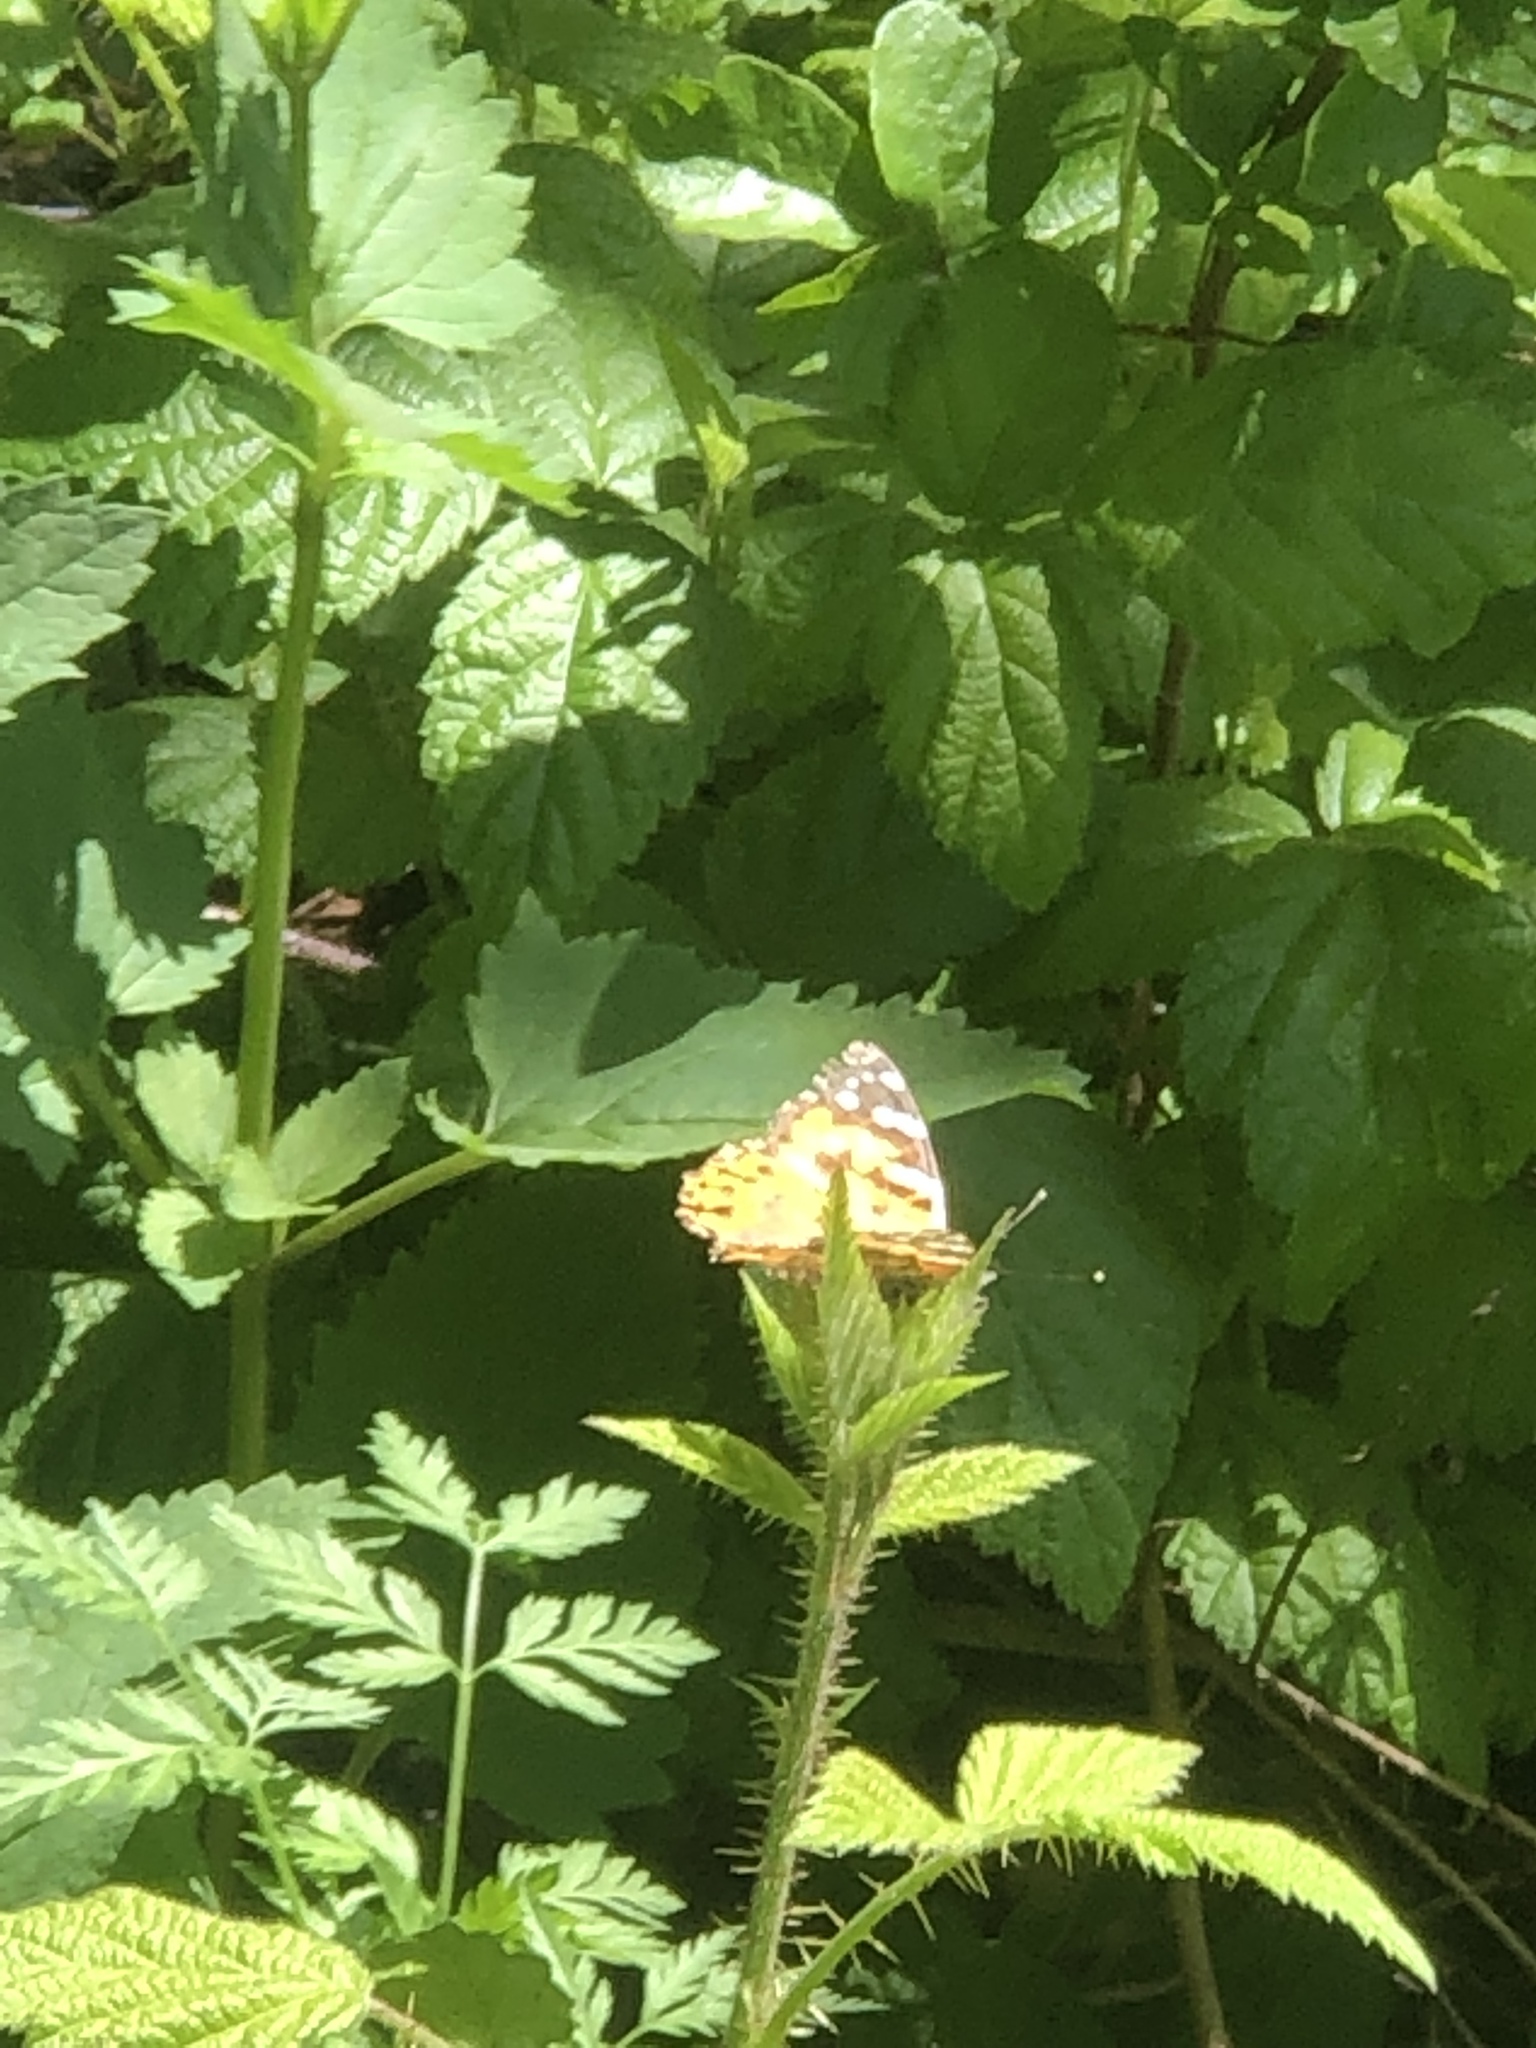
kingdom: Animalia
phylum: Arthropoda
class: Insecta
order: Lepidoptera
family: Nymphalidae
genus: Vanessa
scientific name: Vanessa cardui
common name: Painted lady
